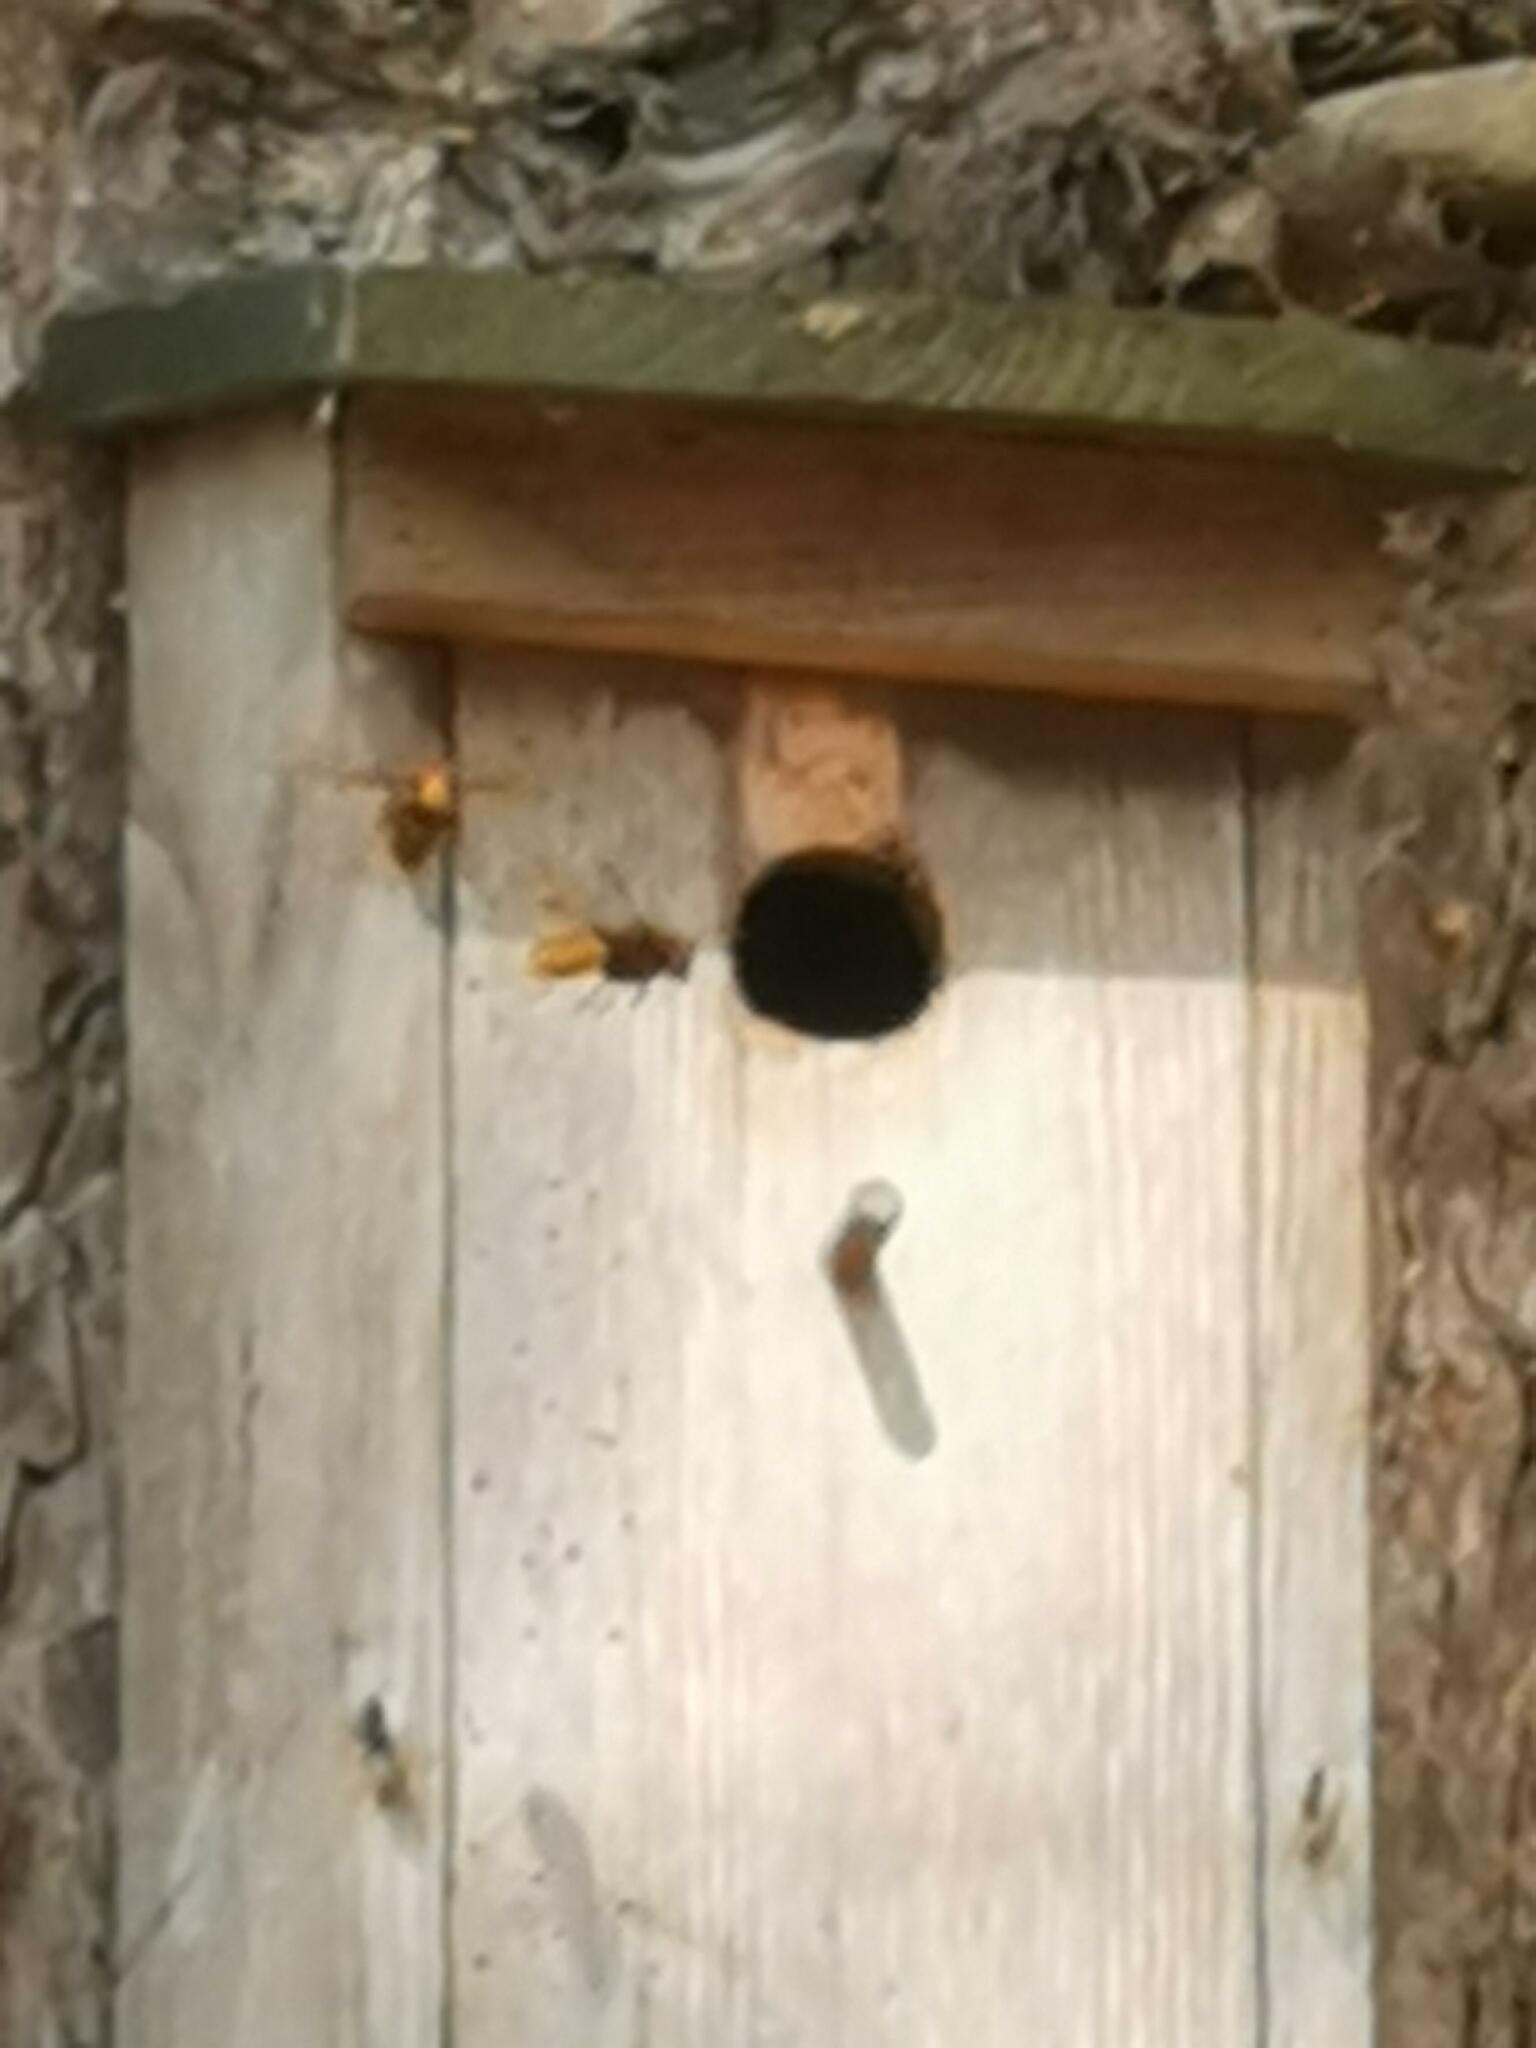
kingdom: Animalia
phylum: Arthropoda
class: Insecta
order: Hymenoptera
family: Vespidae
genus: Vespa
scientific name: Vespa crabro
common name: Hornet
